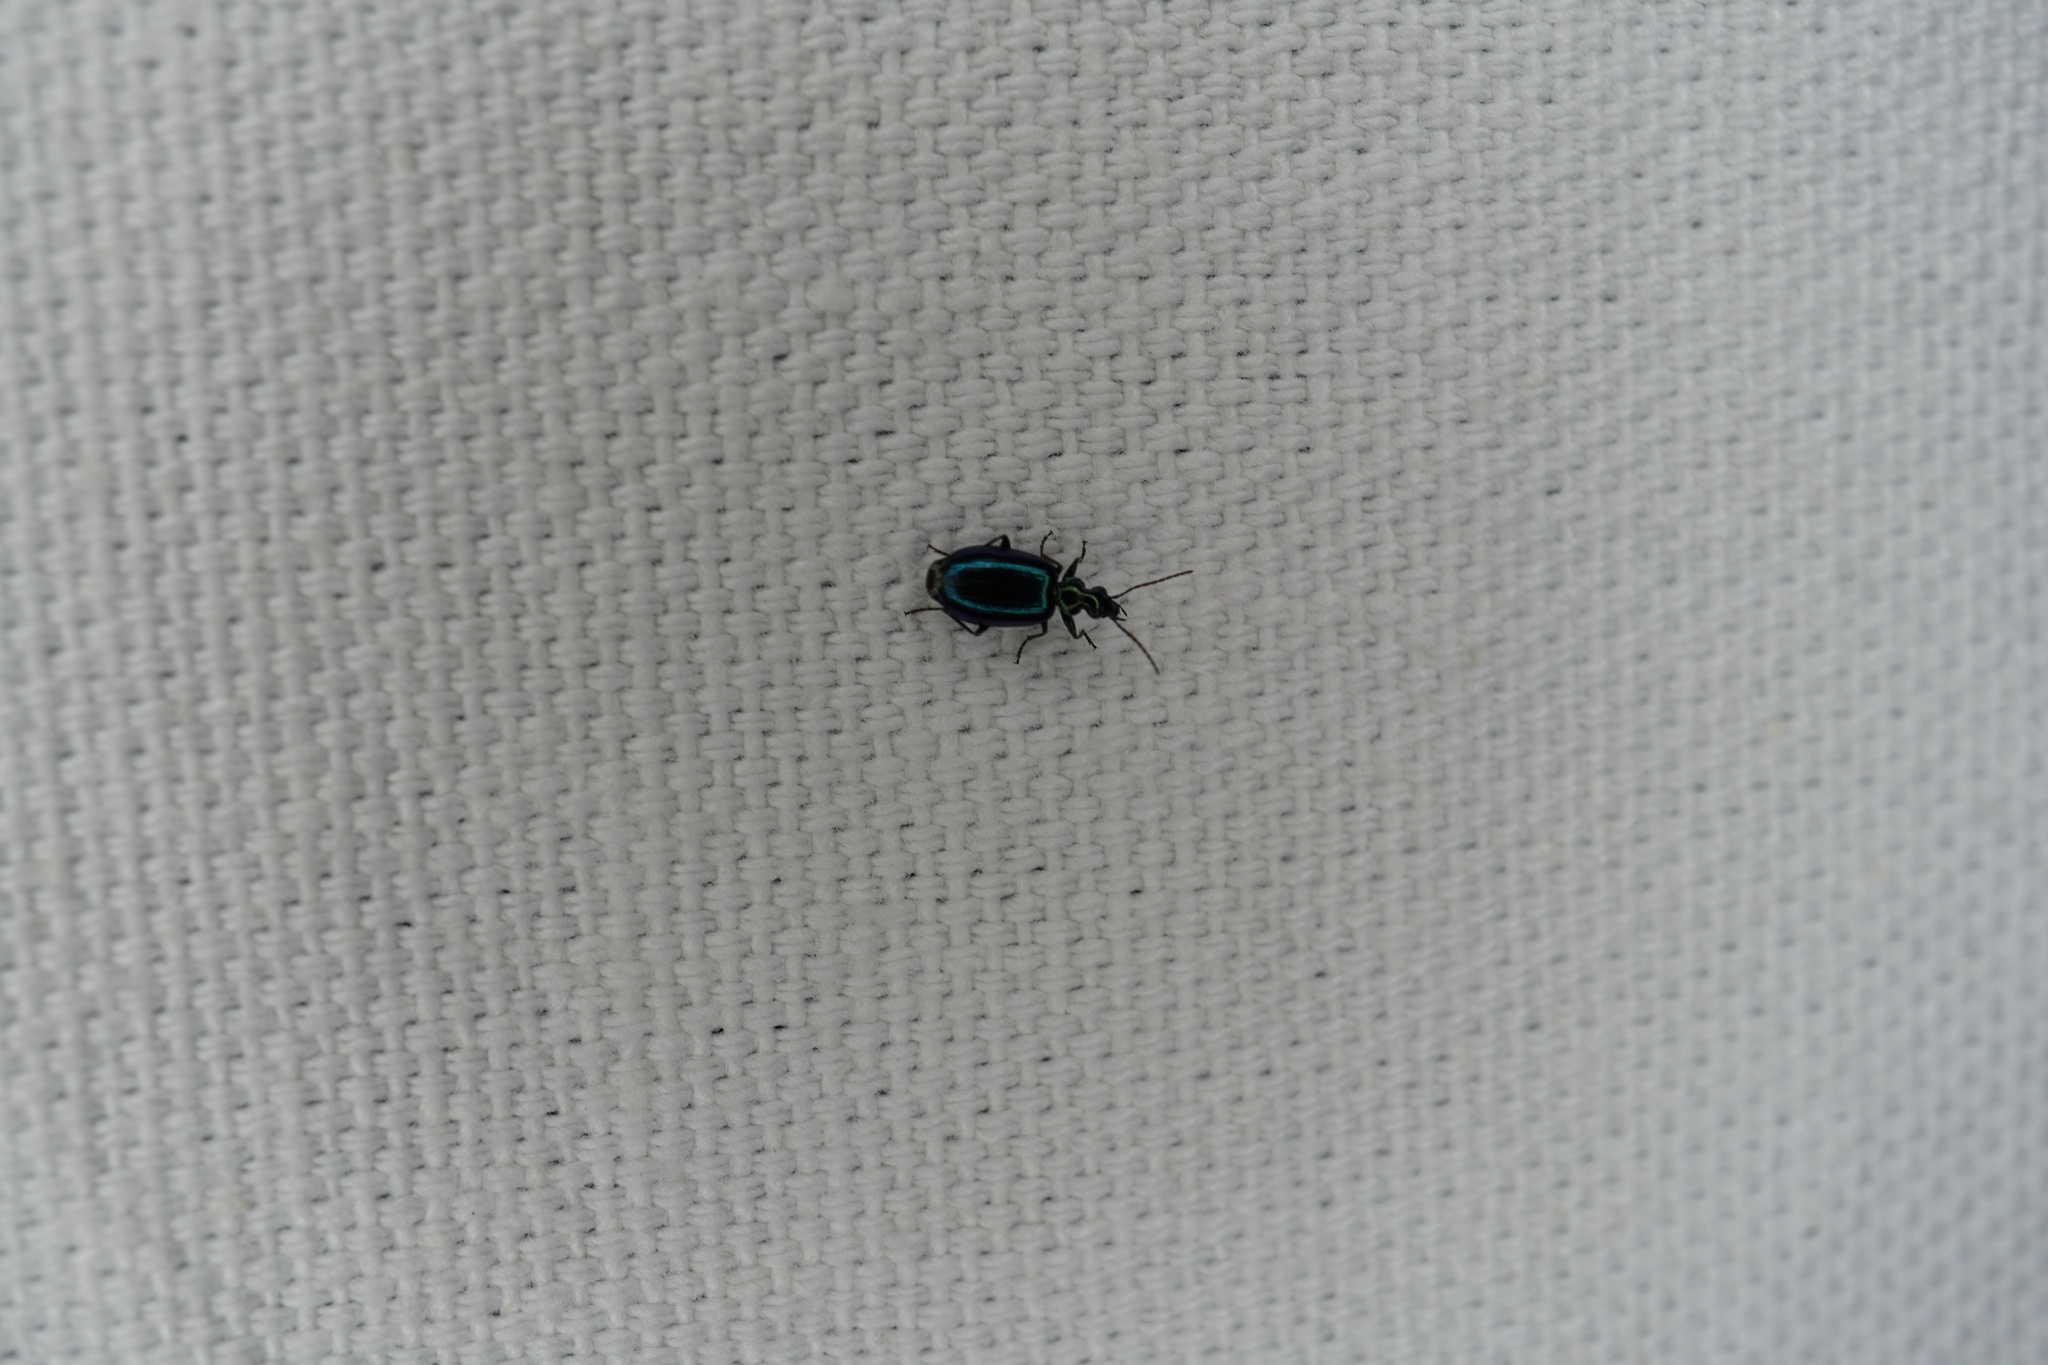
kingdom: Animalia
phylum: Arthropoda
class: Insecta
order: Coleoptera
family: Carabidae
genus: Lebia
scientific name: Lebia viridis
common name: Flower lebia beetle
